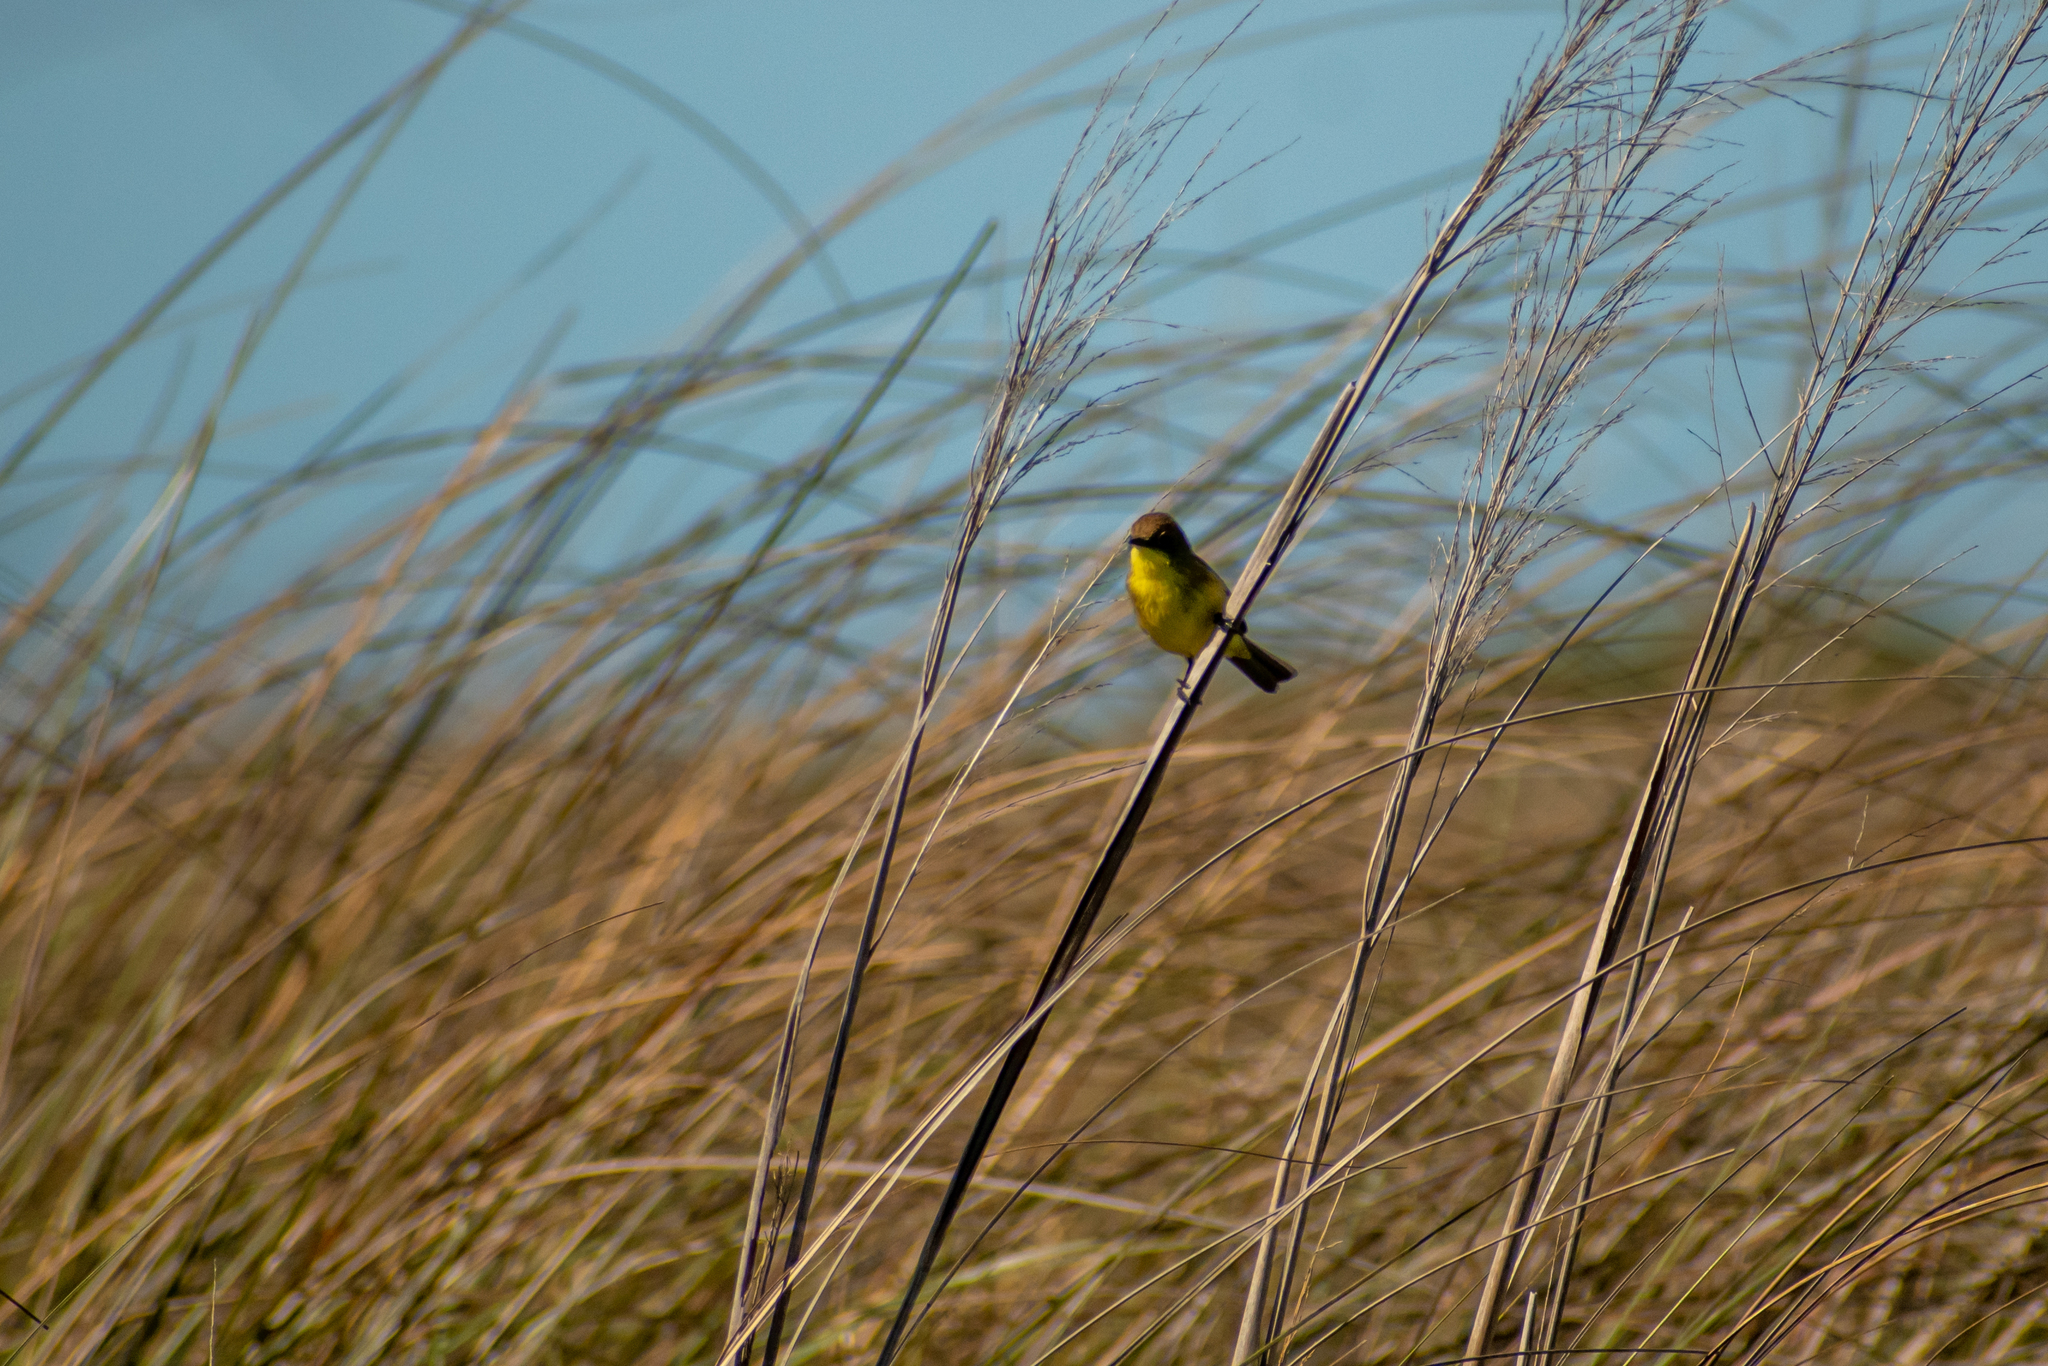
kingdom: Animalia
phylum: Chordata
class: Aves
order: Passeriformes
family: Tyrannidae
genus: Pseudocolopteryx
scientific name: Pseudocolopteryx flaviventris
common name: Warbling doradito
